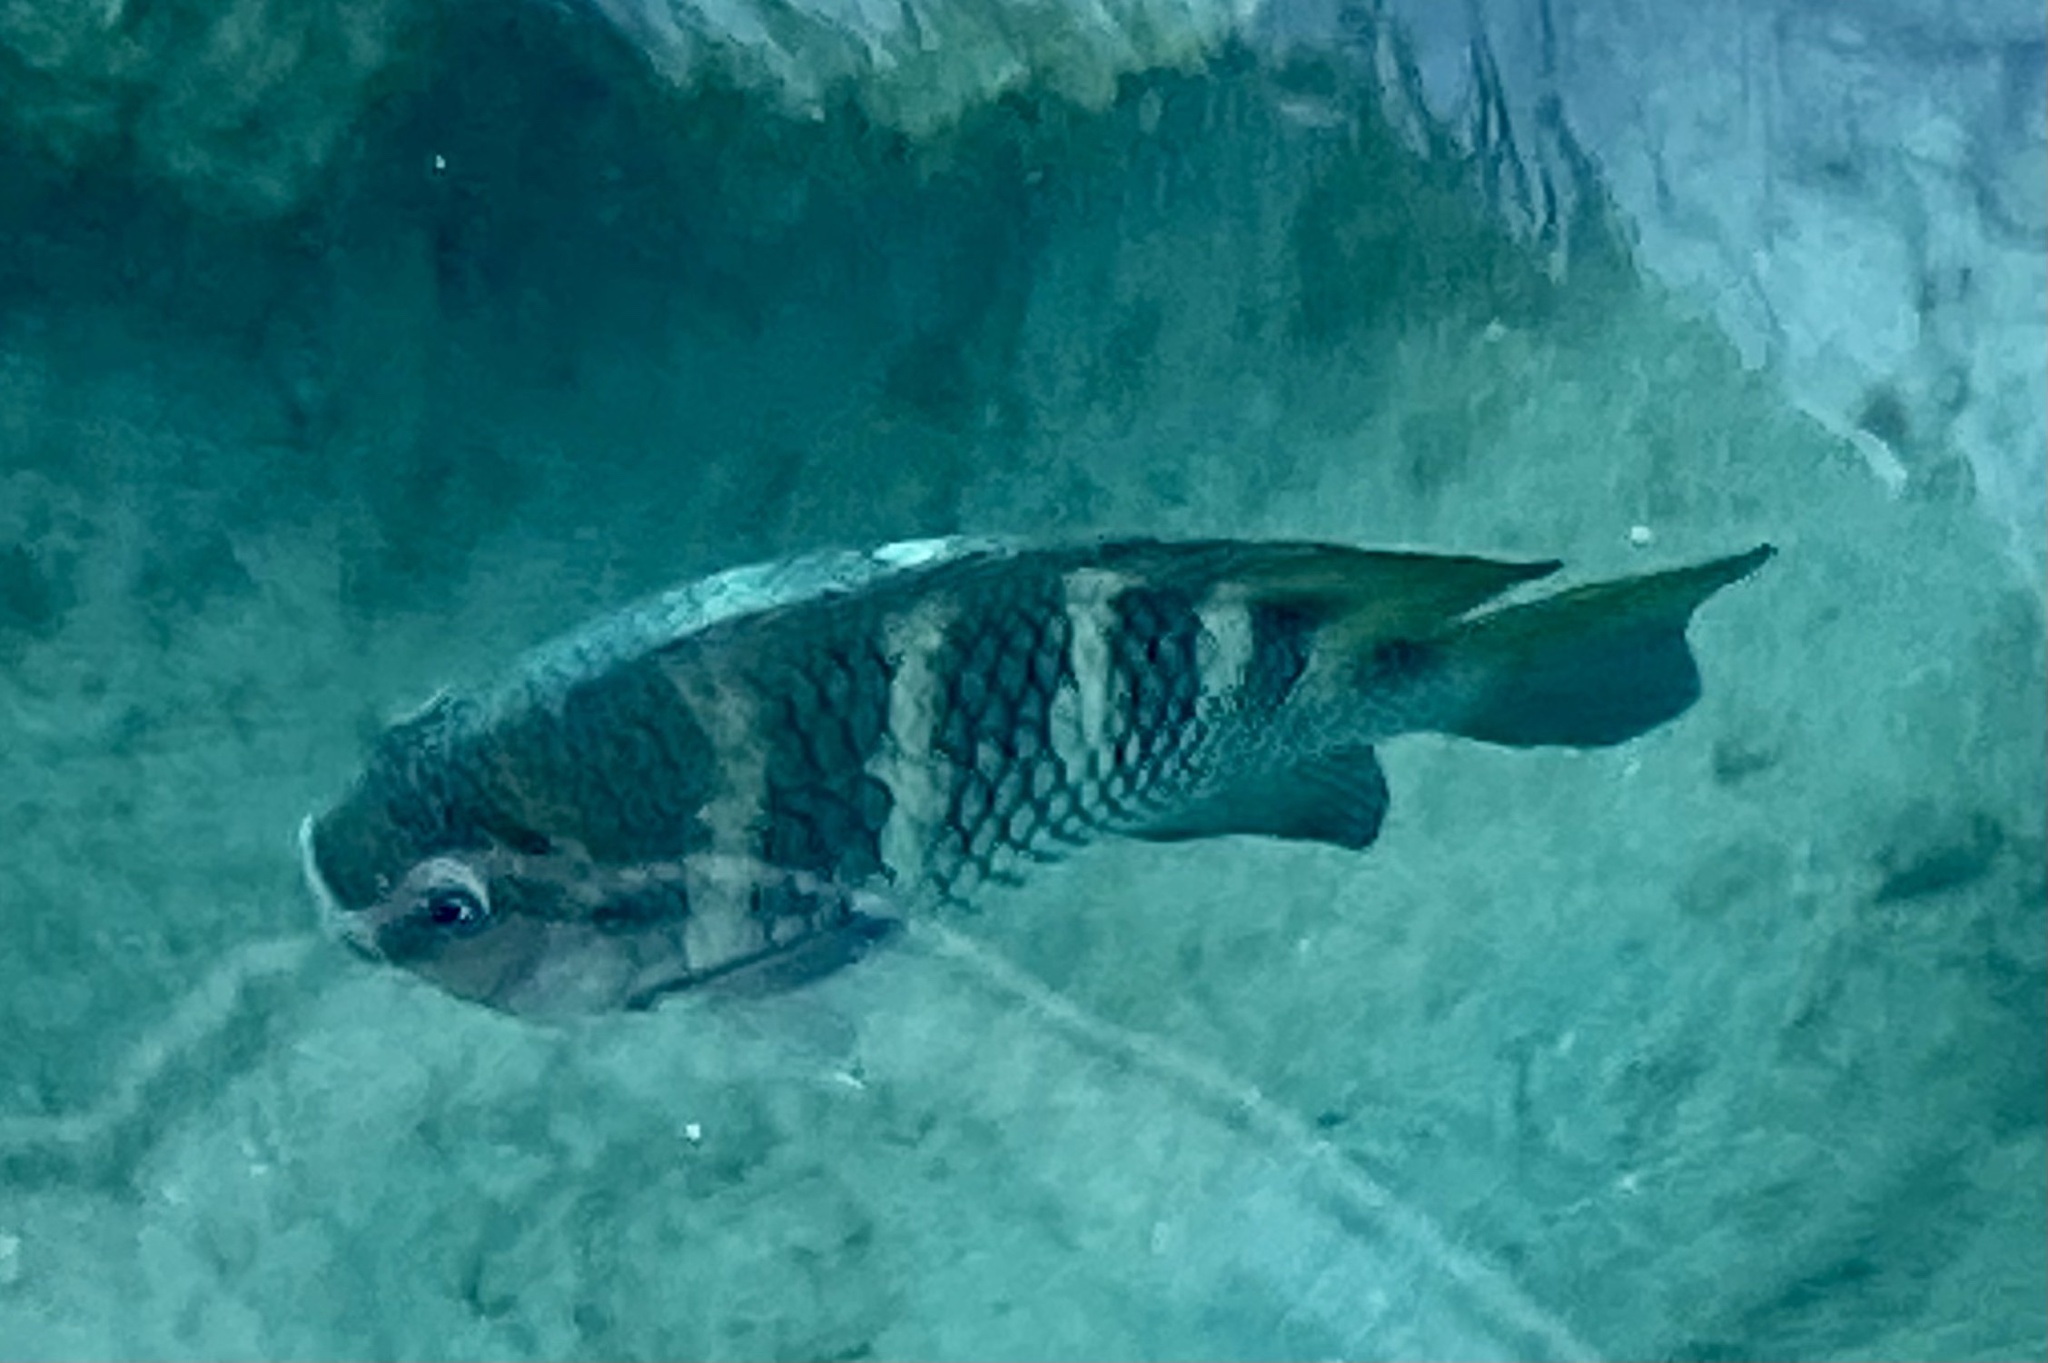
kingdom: Animalia
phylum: Chordata
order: Perciformes
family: Pomacentridae
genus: Abudefduf
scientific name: Abudefduf taurus
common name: Night sergeant
